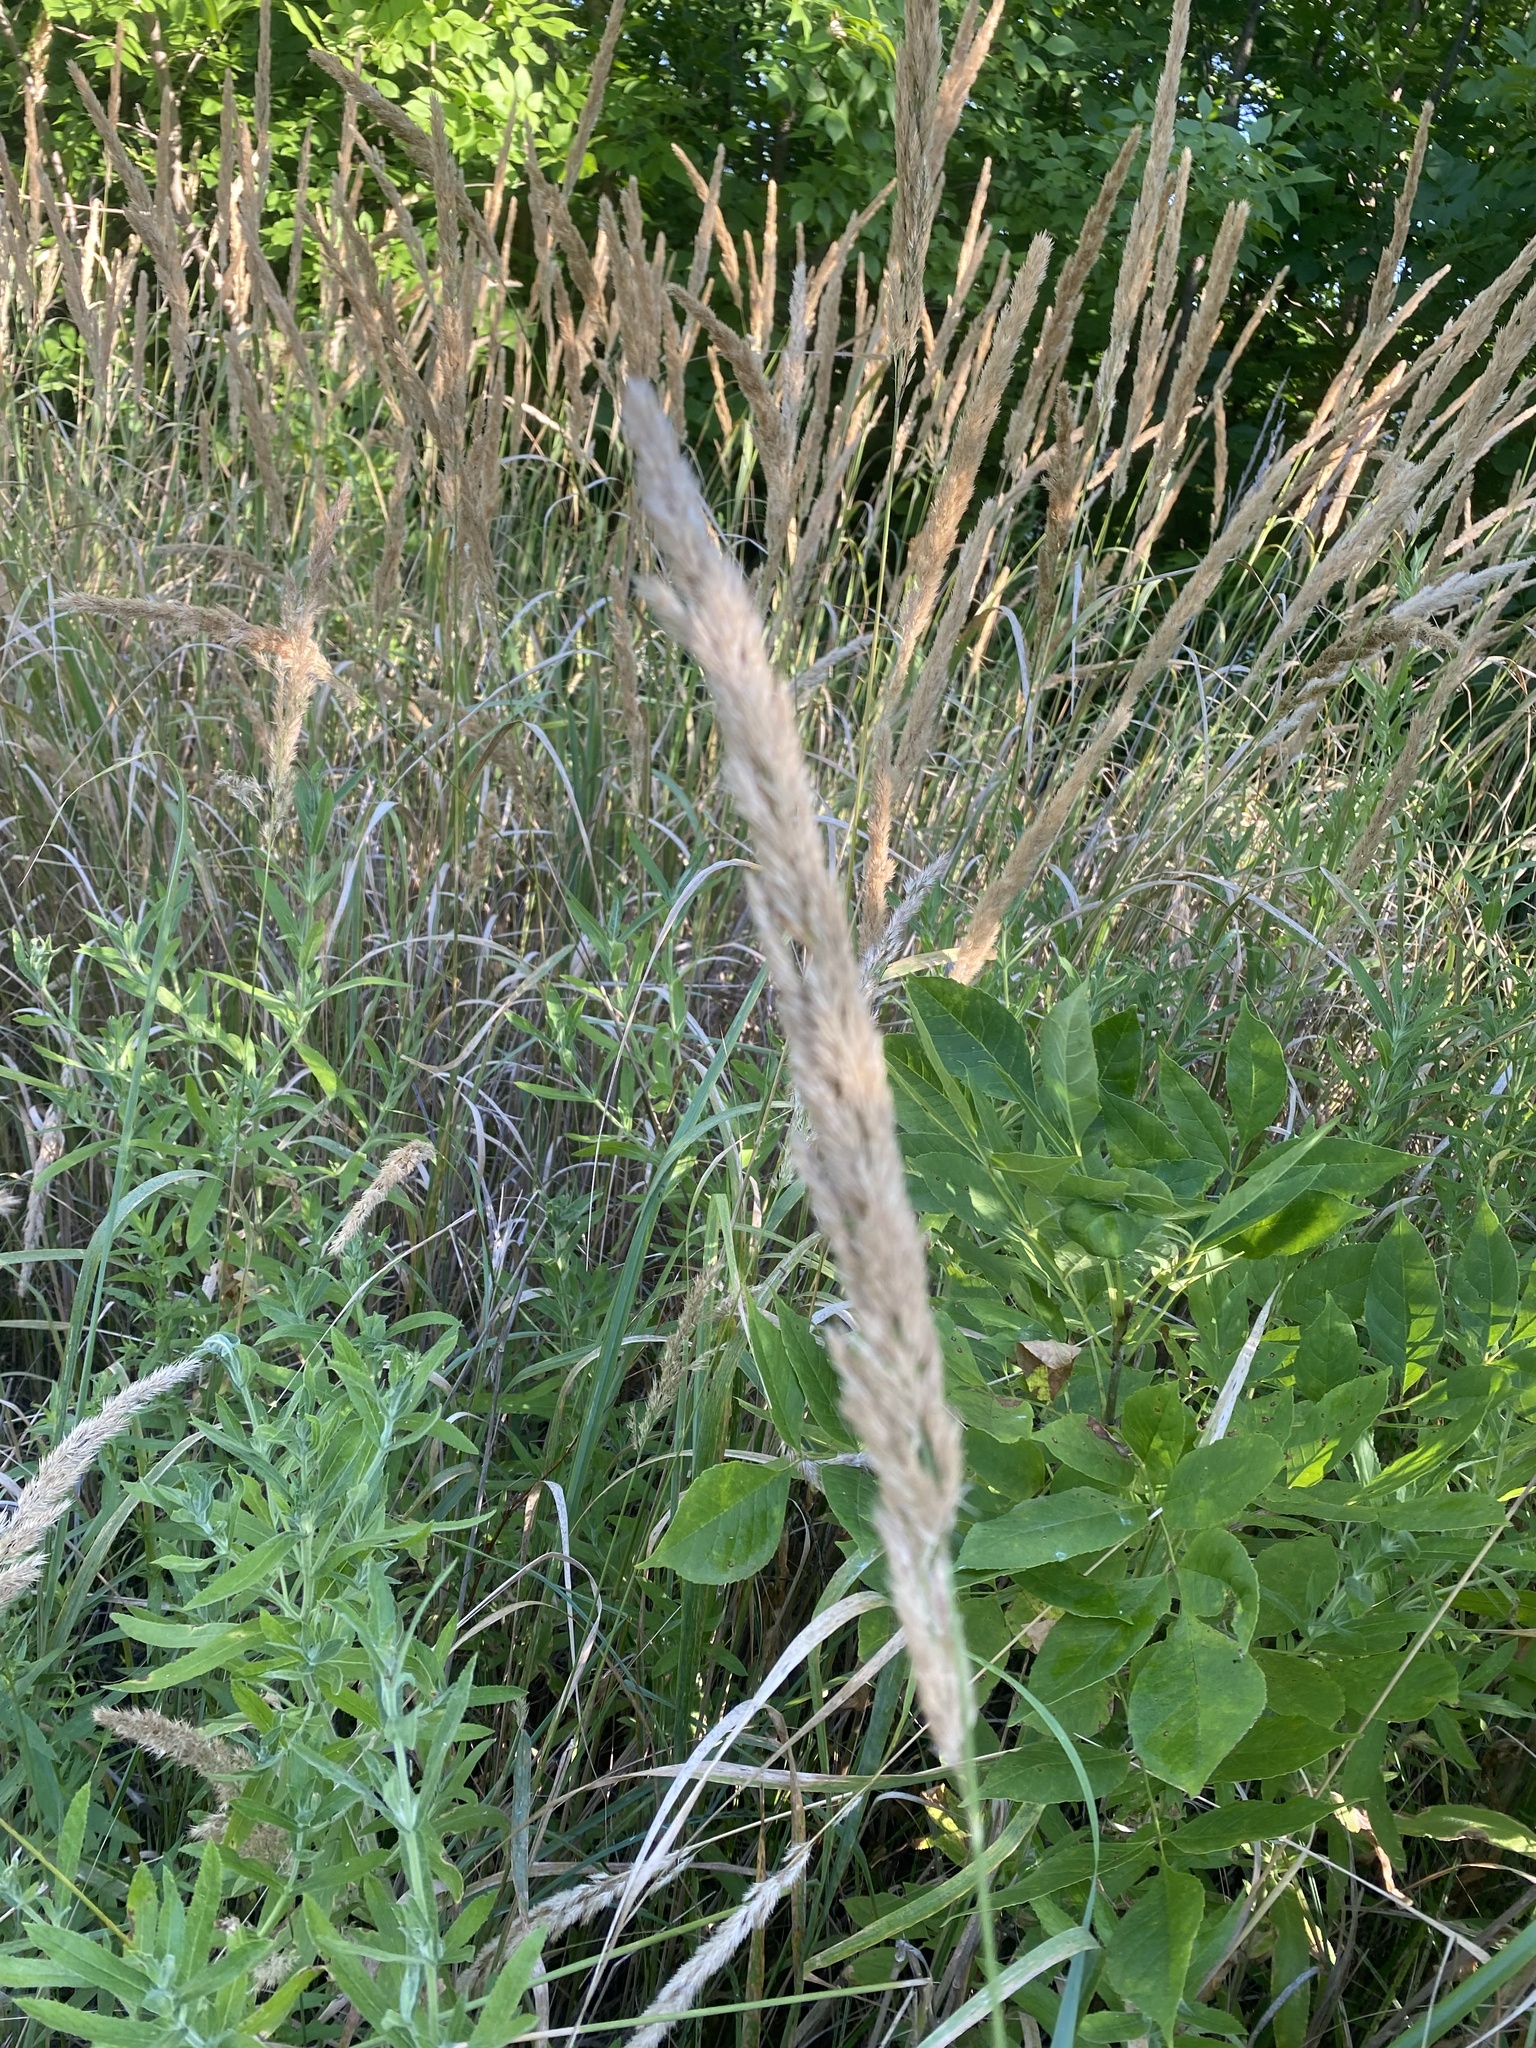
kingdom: Plantae
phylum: Tracheophyta
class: Liliopsida
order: Poales
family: Poaceae
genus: Calamagrostis
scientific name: Calamagrostis epigejos
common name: Wood small-reed
